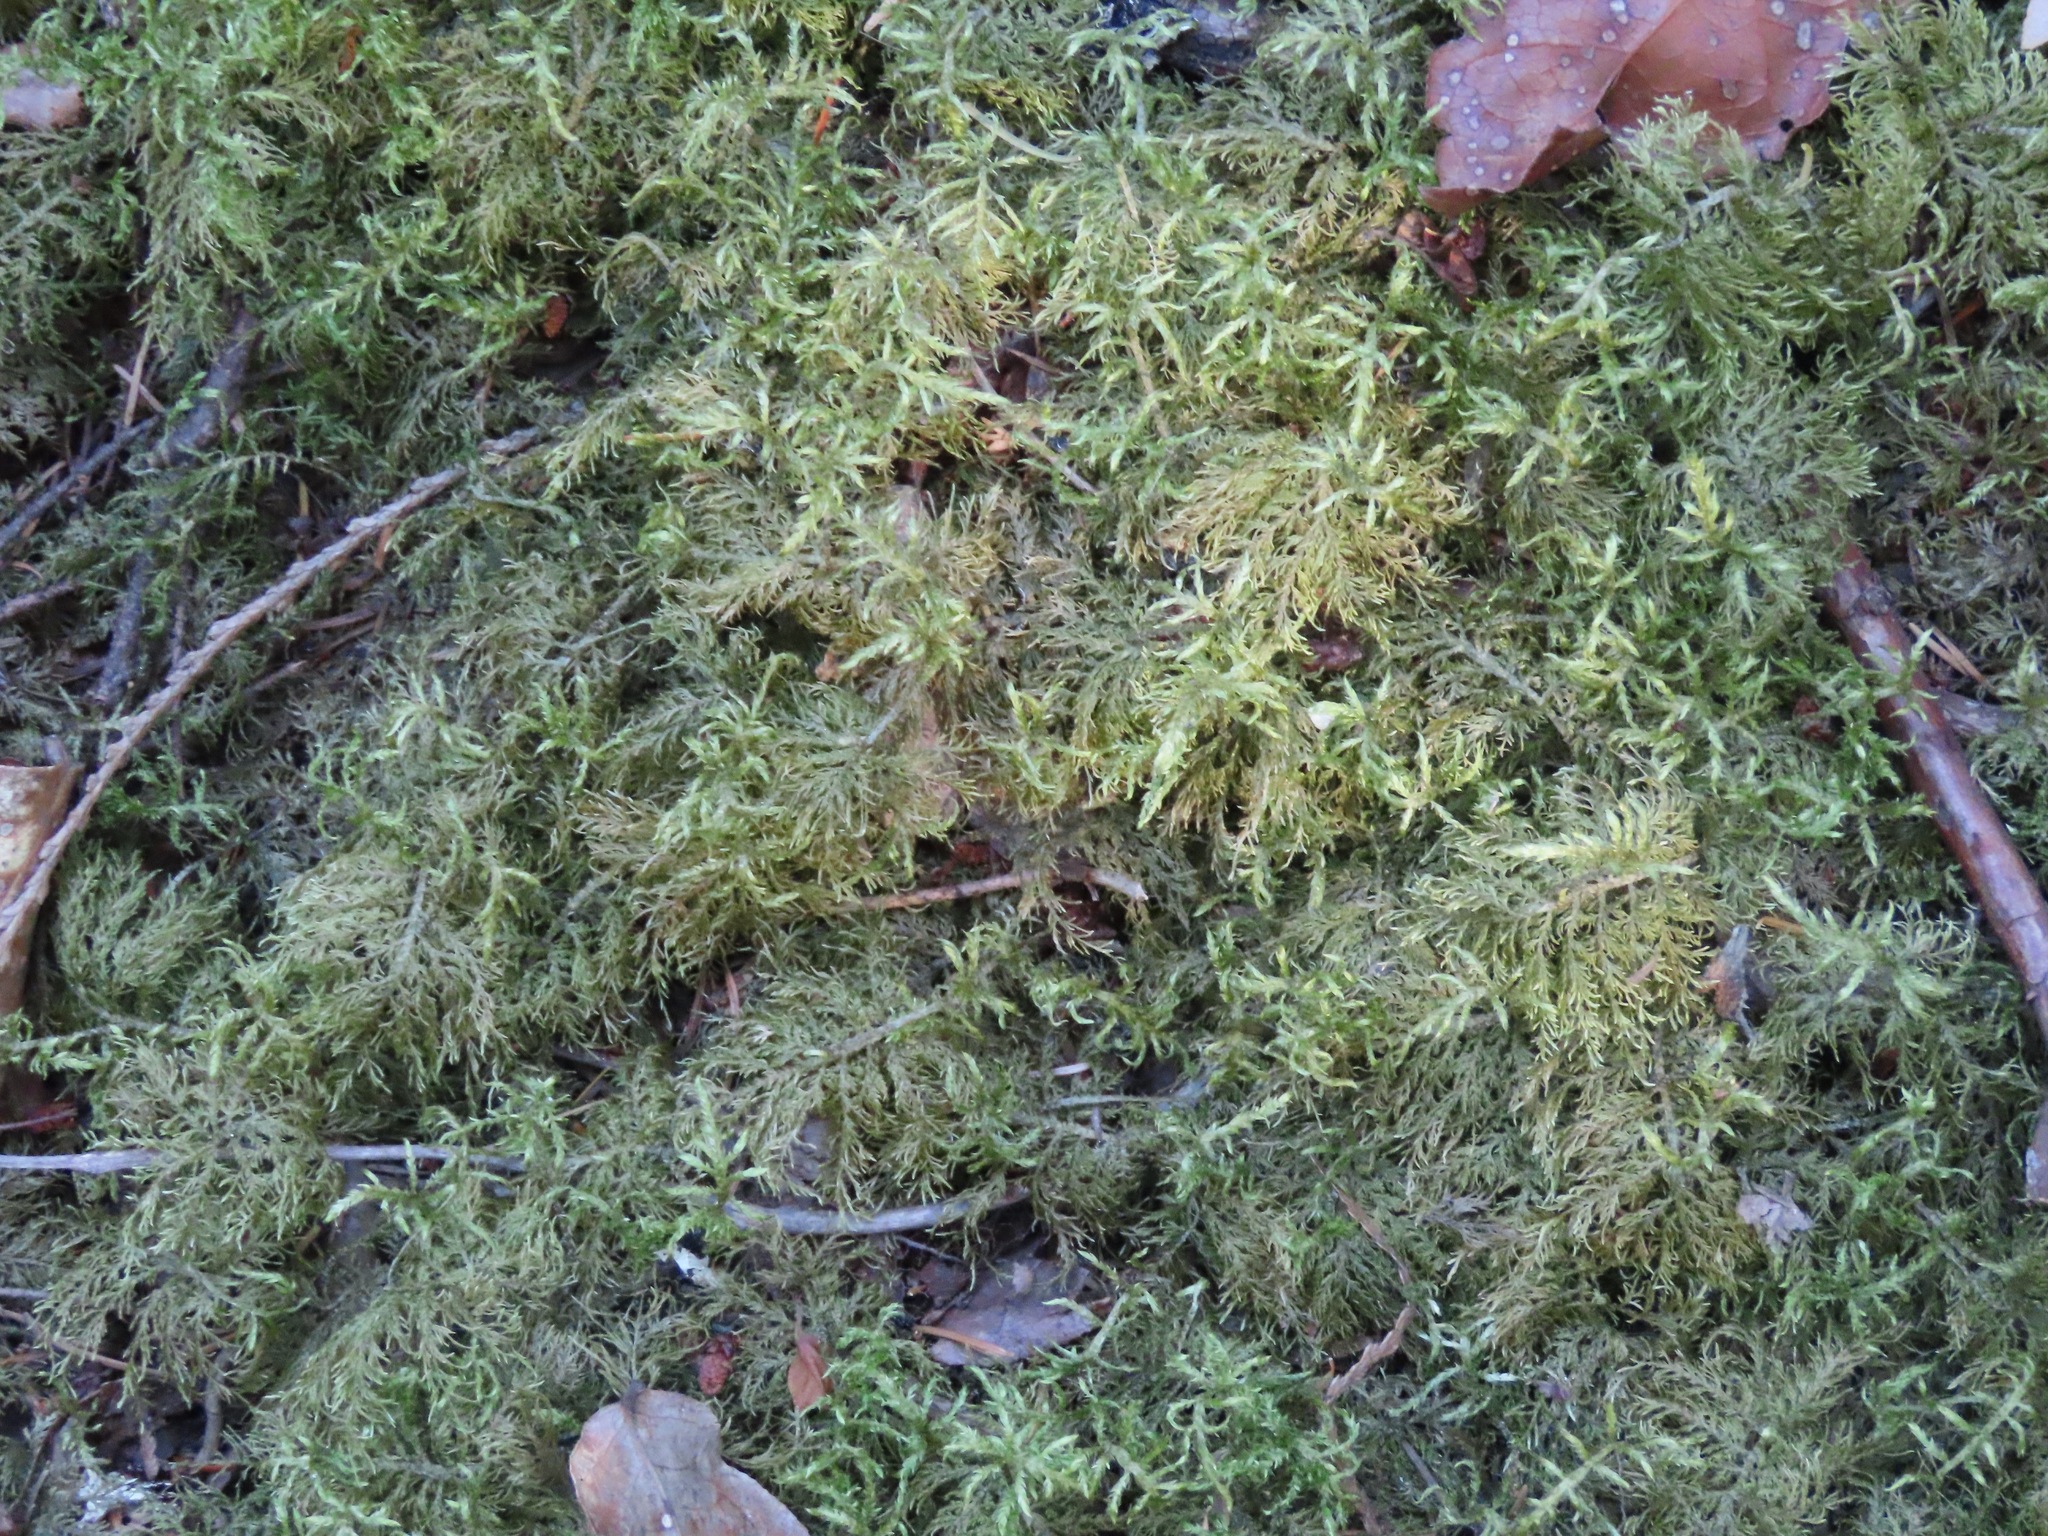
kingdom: Plantae
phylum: Bryophyta
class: Bryopsida
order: Hypnales
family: Hylocomiaceae
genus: Hylocomium
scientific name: Hylocomium splendens
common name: Stairstep moss
